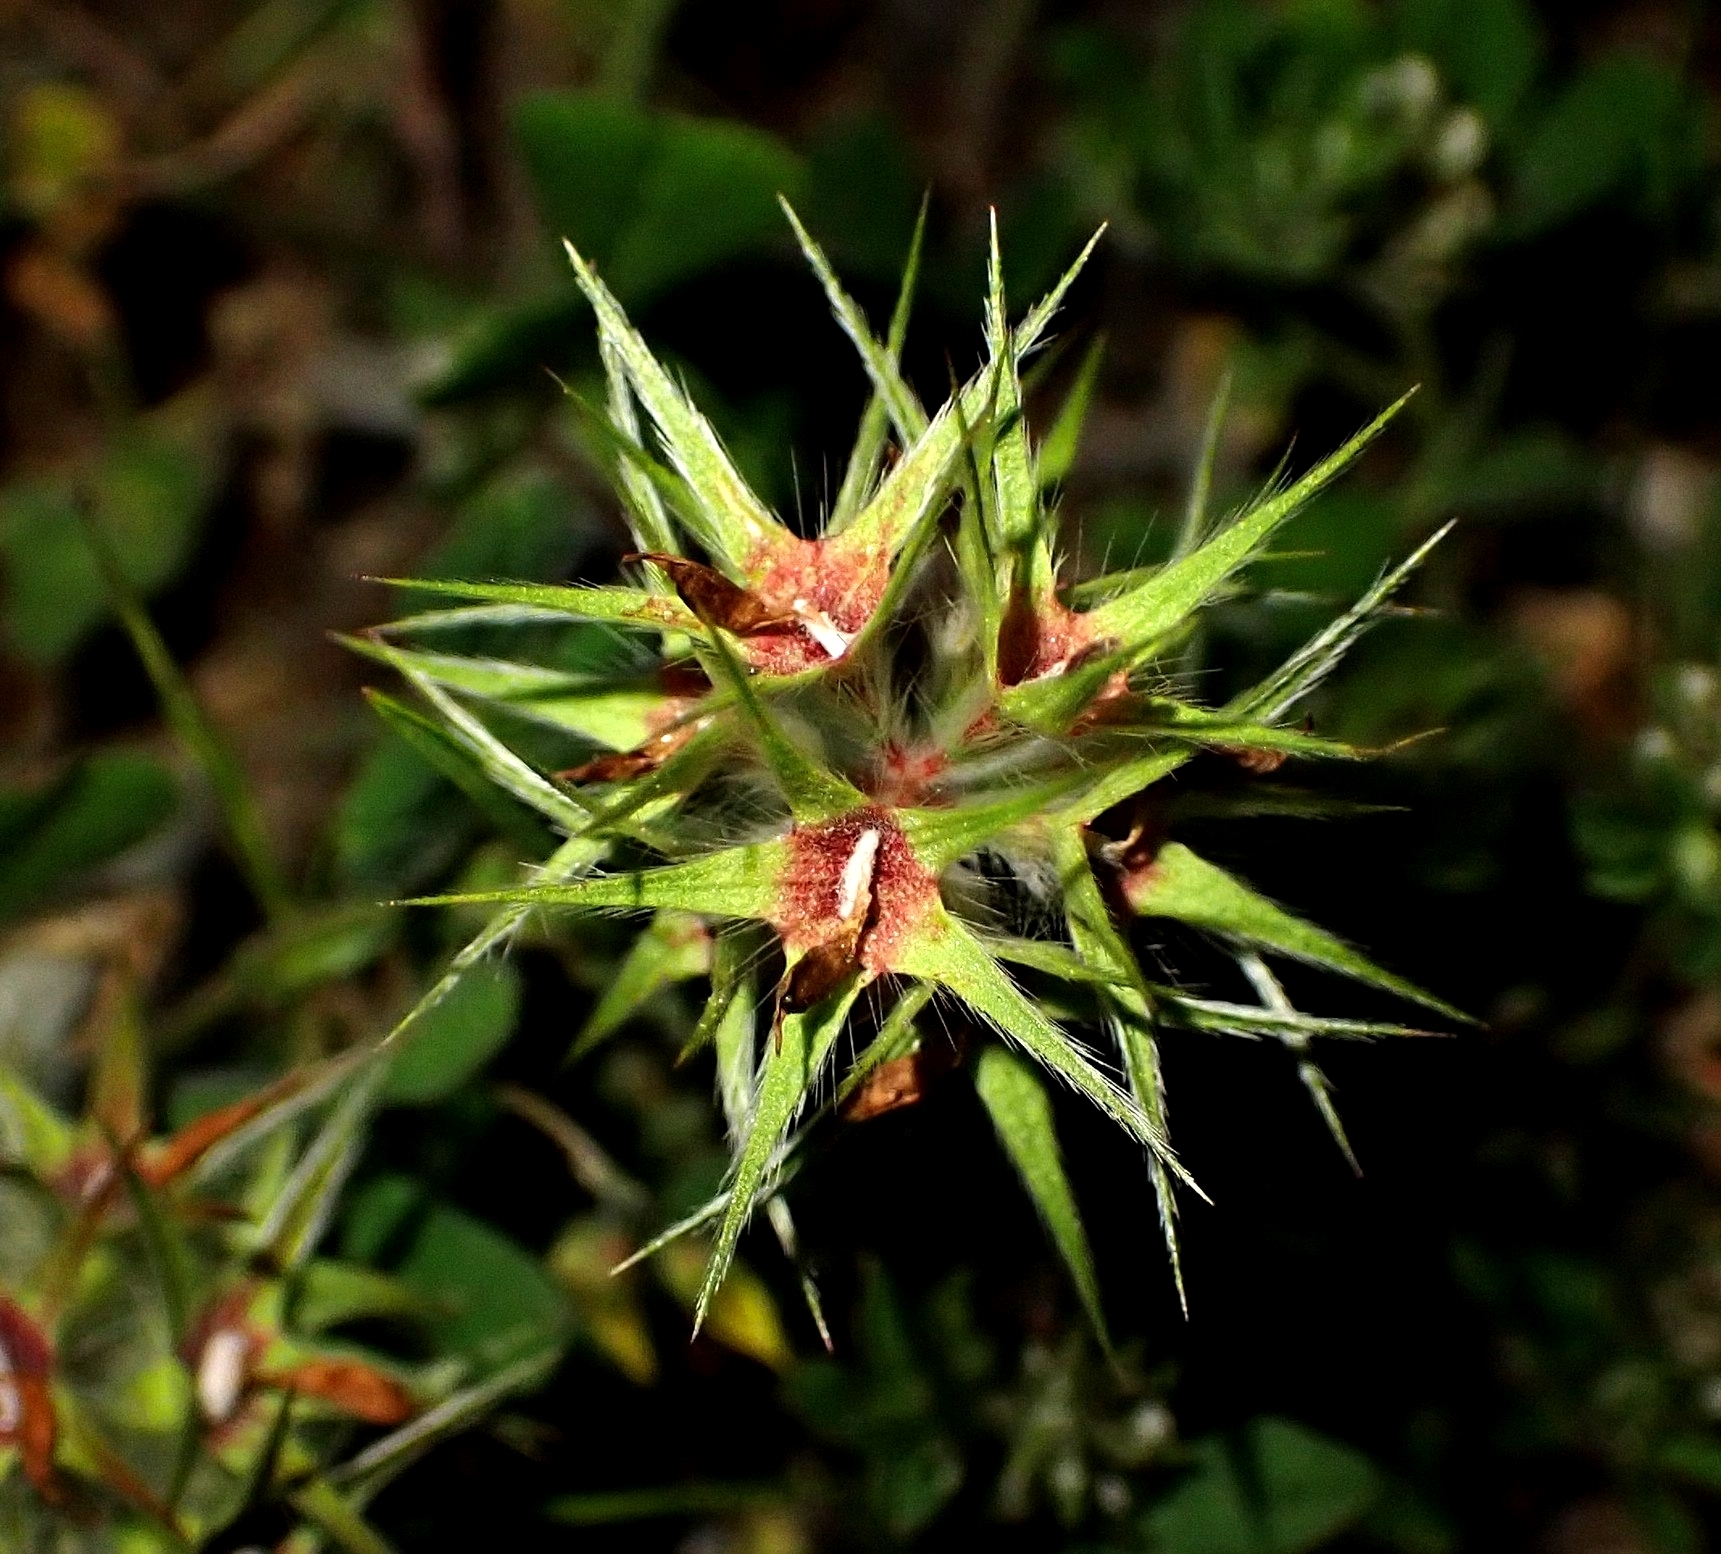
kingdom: Plantae
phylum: Tracheophyta
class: Magnoliopsida
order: Fabales
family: Fabaceae
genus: Trifolium
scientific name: Trifolium stellatum
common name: Starry clover
